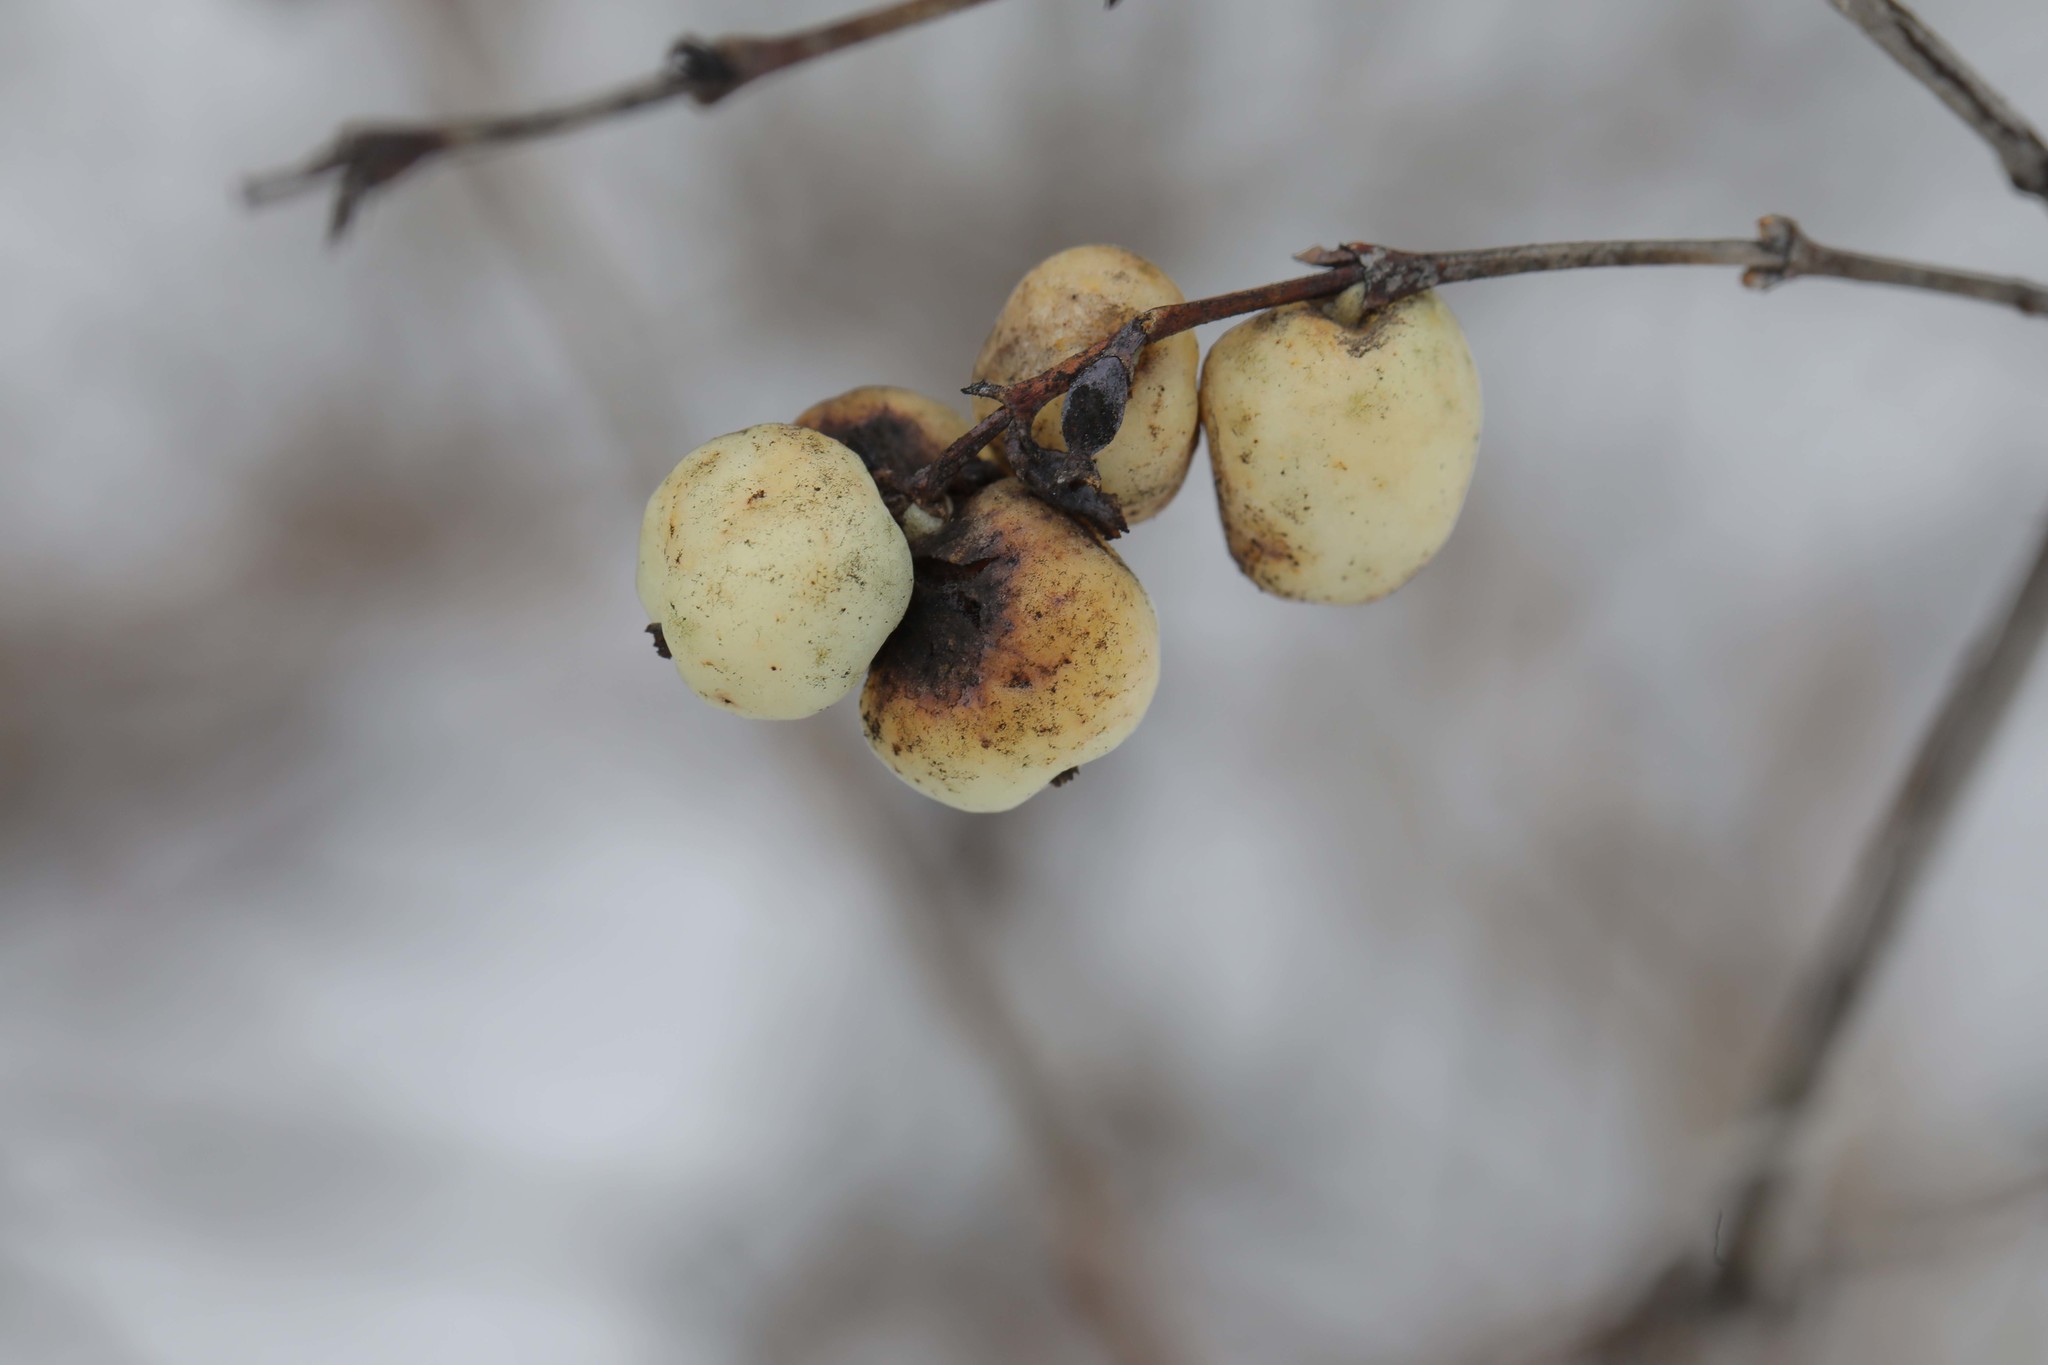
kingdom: Plantae
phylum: Tracheophyta
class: Magnoliopsida
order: Dipsacales
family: Caprifoliaceae
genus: Symphoricarpos
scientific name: Symphoricarpos albus
